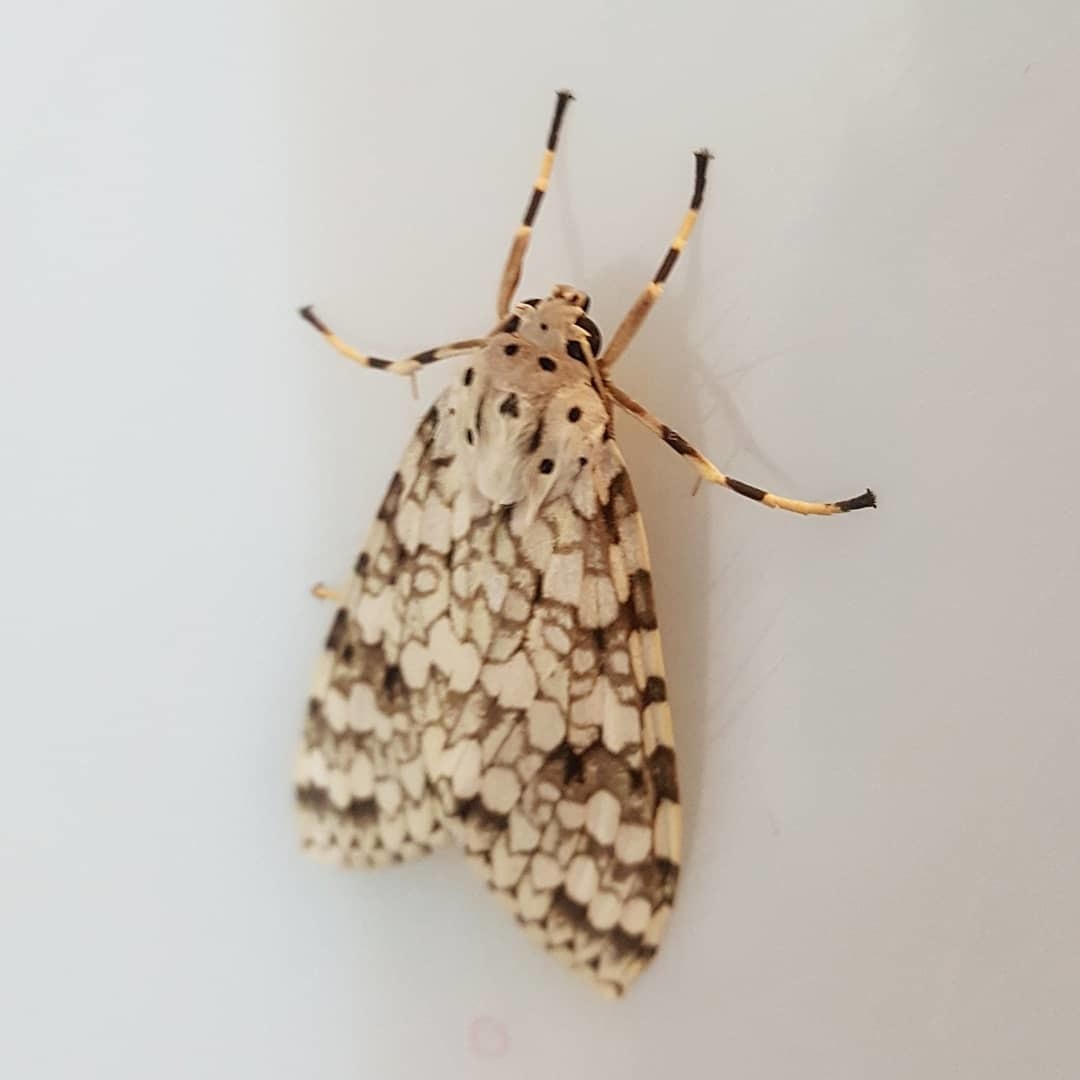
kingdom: Animalia
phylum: Arthropoda
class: Insecta
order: Lepidoptera
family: Erebidae
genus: Carales
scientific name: Carales astur
